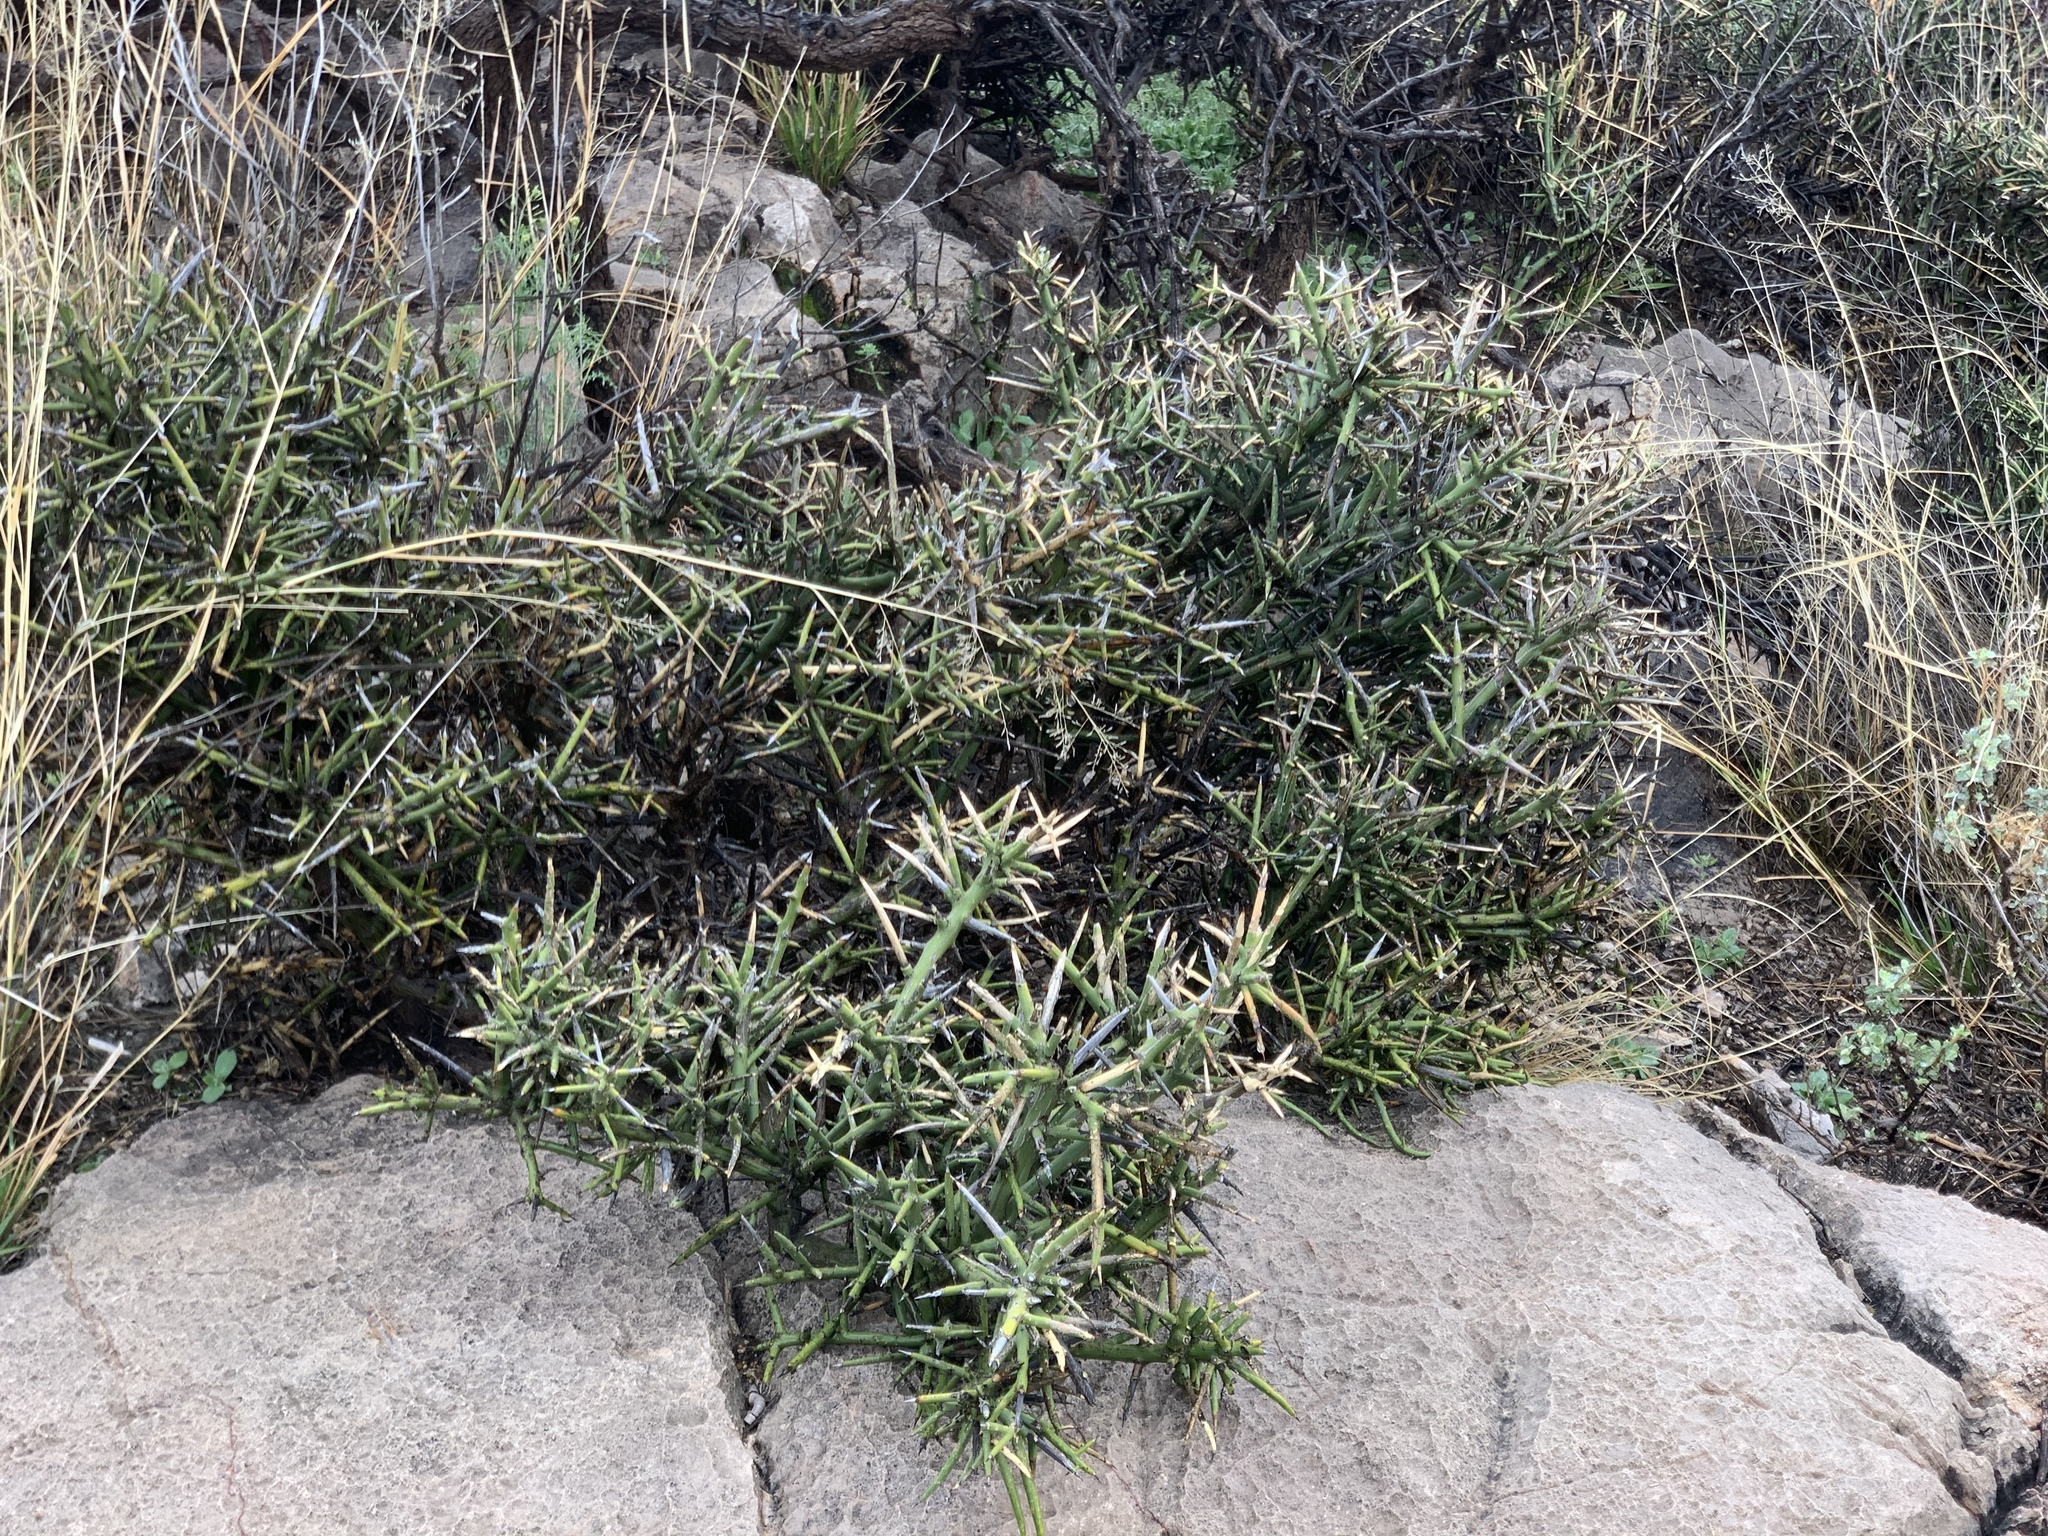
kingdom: Plantae
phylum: Tracheophyta
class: Magnoliopsida
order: Brassicales
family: Koeberliniaceae
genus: Koeberlinia
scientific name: Koeberlinia spinosa
